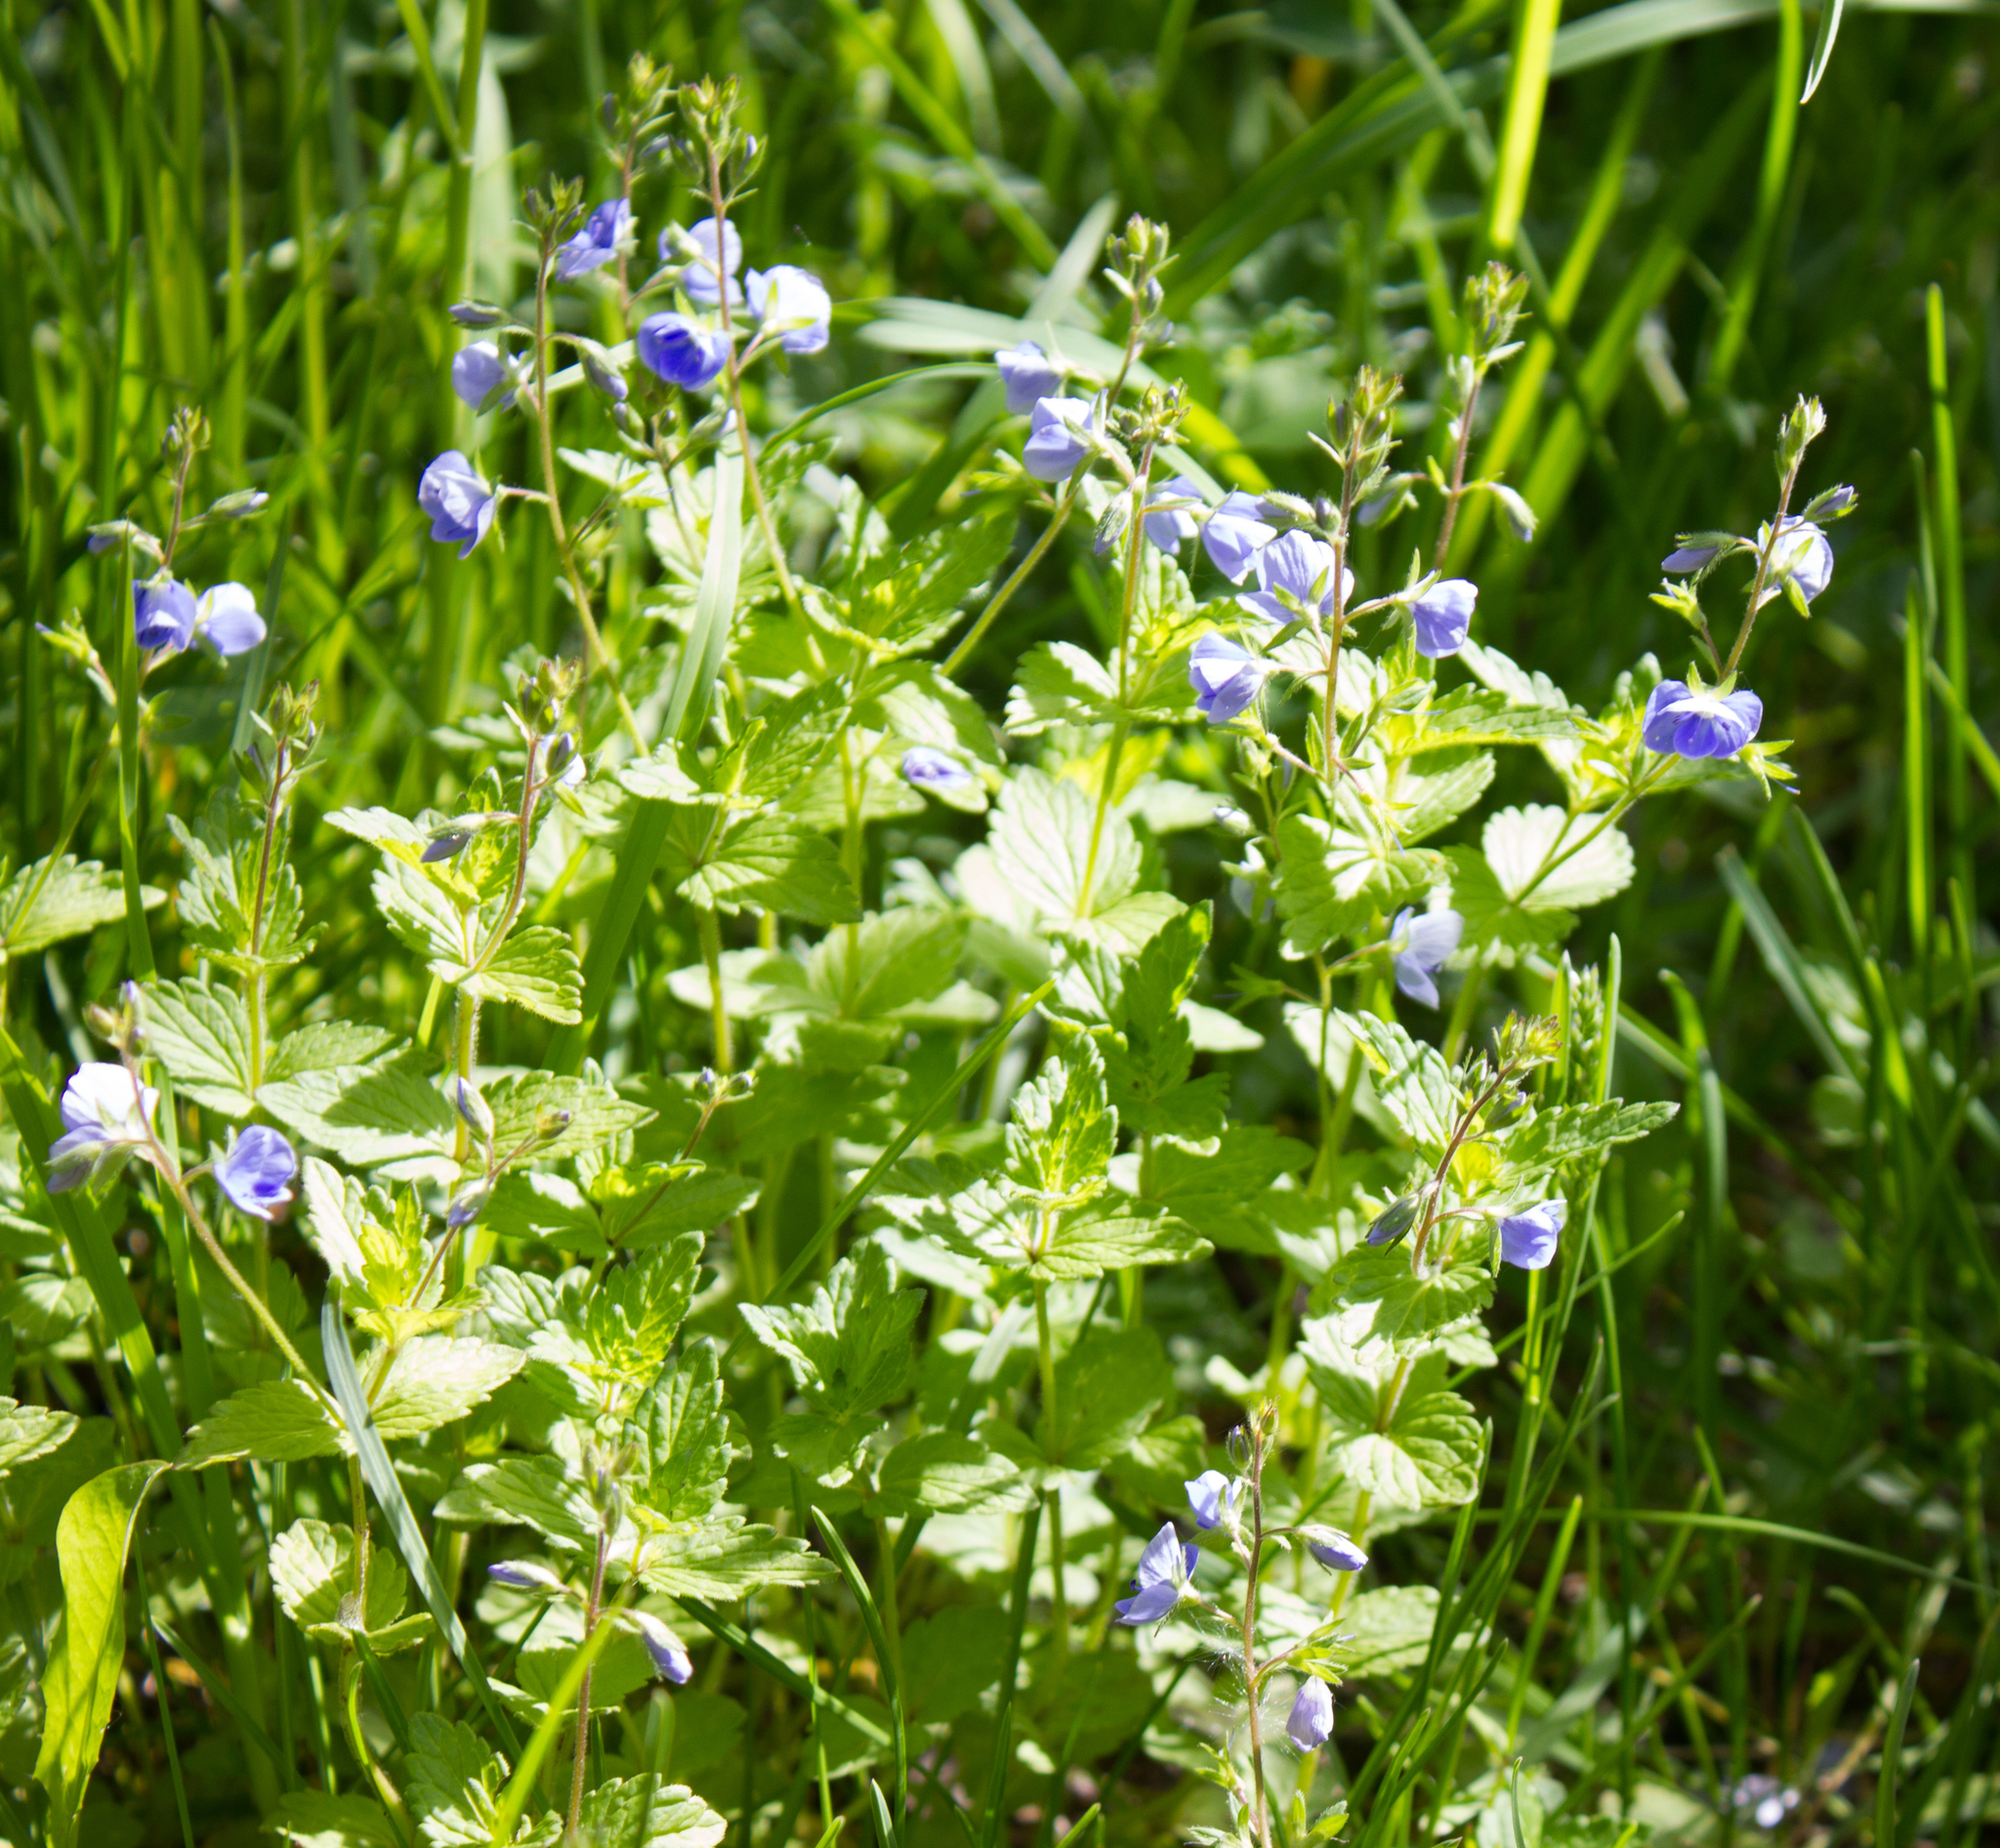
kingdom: Plantae
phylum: Tracheophyta
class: Magnoliopsida
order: Lamiales
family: Plantaginaceae
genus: Veronica
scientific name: Veronica chamaedrys
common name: Germander speedwell
